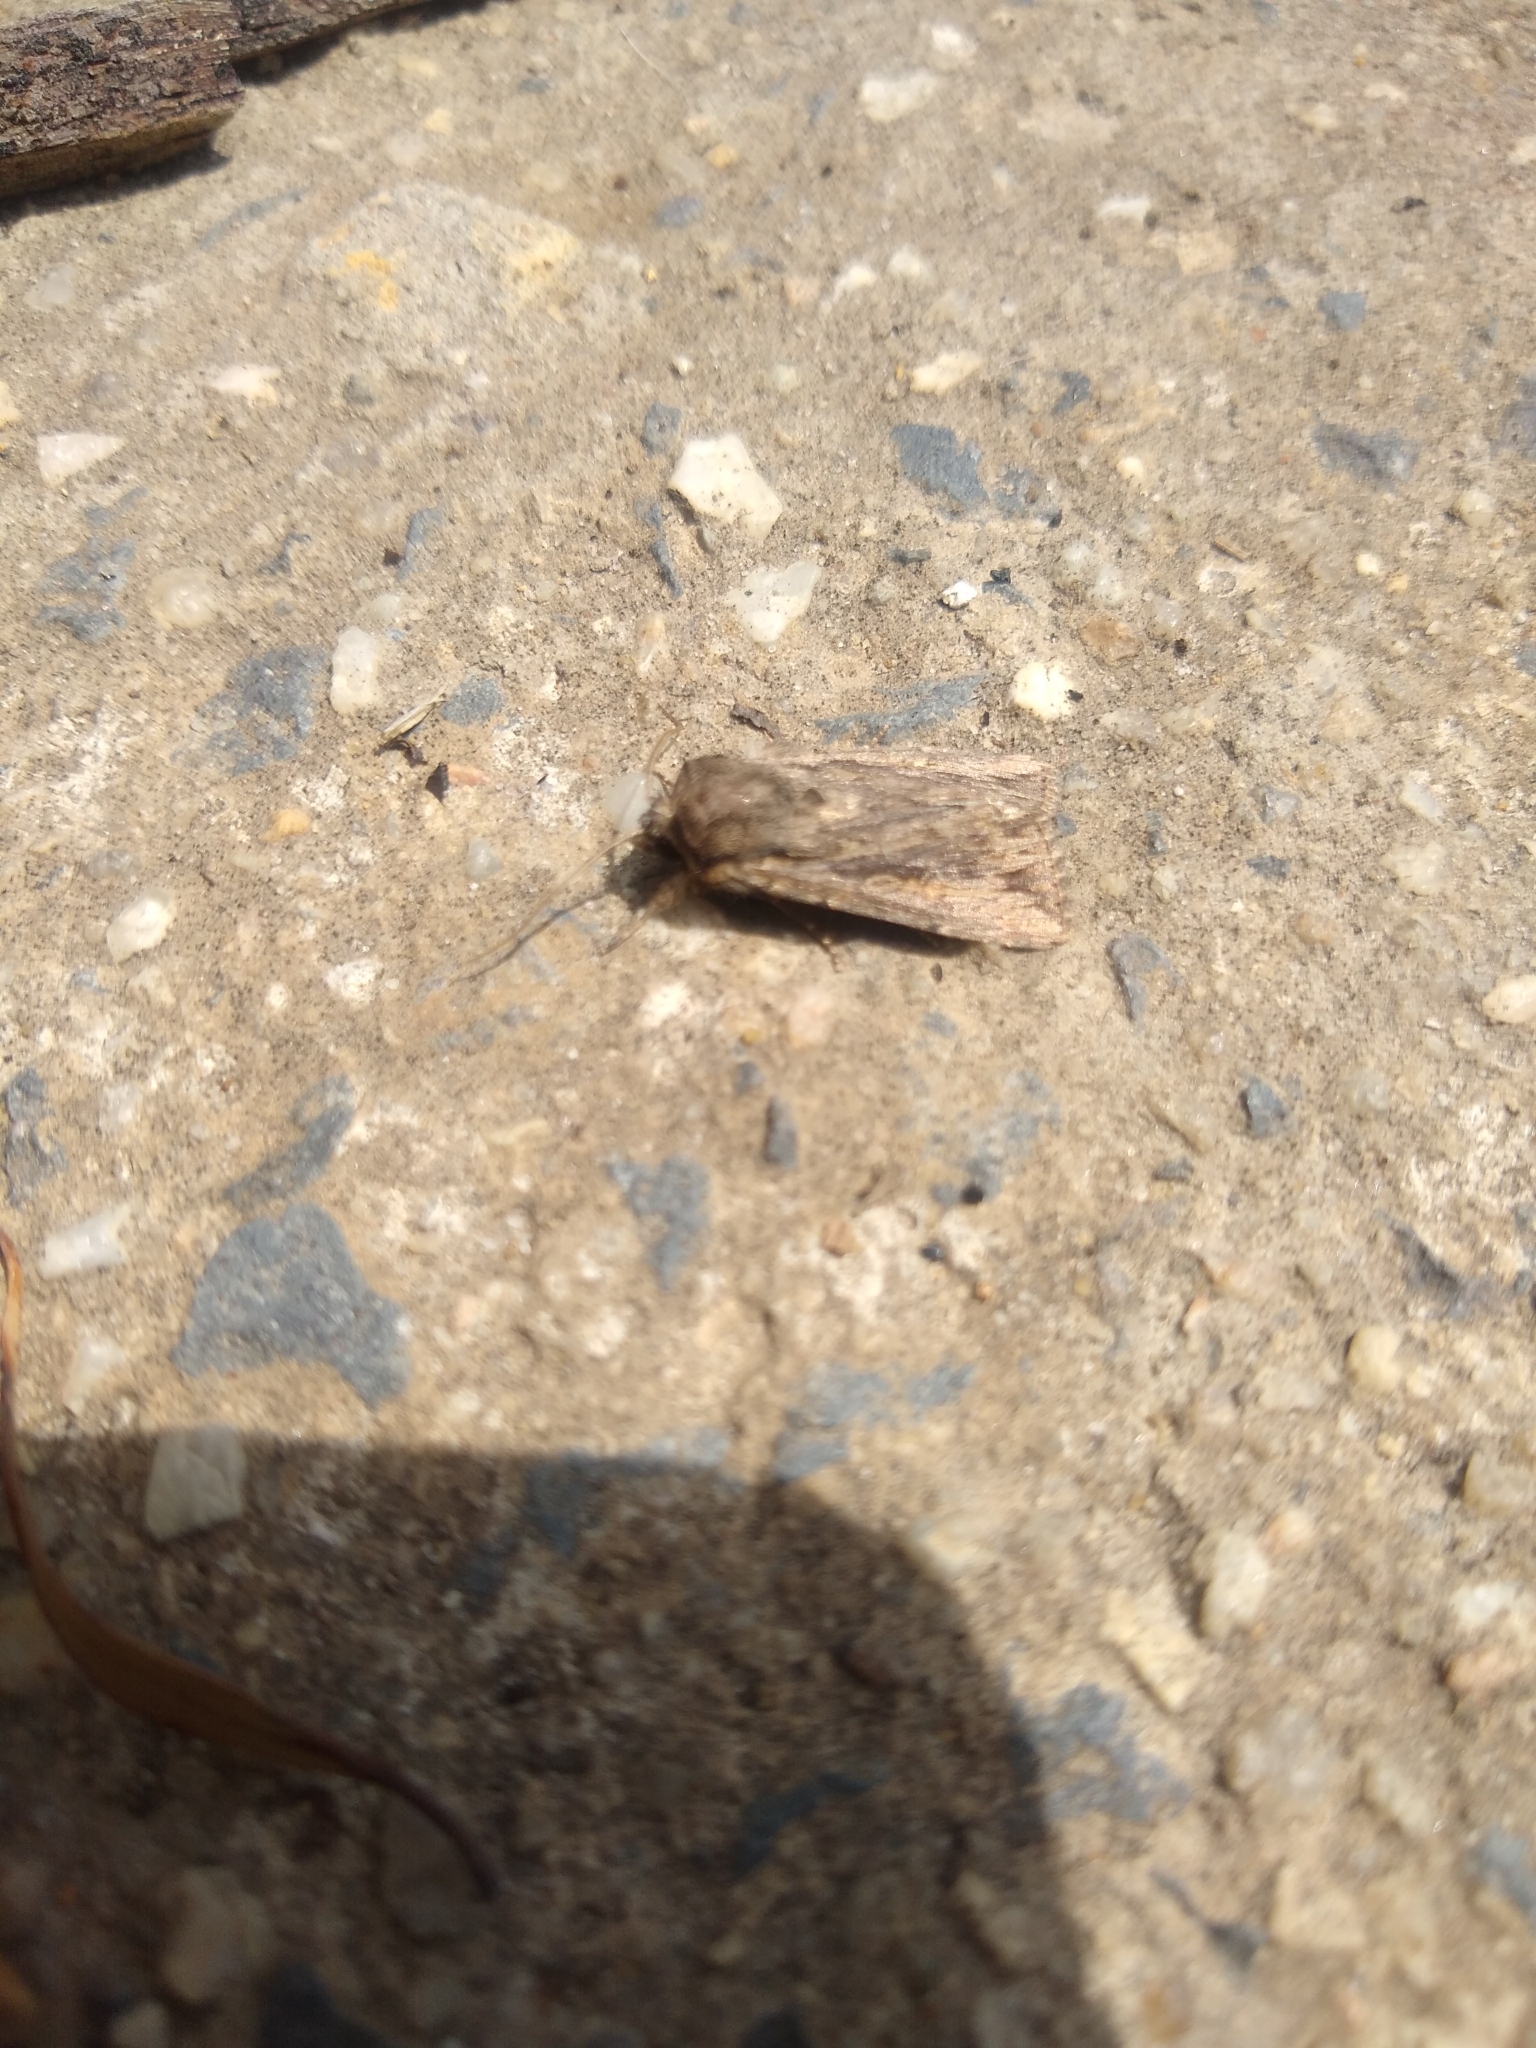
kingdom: Animalia
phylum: Arthropoda
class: Insecta
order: Lepidoptera
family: Noctuidae
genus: Agrotis
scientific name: Agrotis munda
